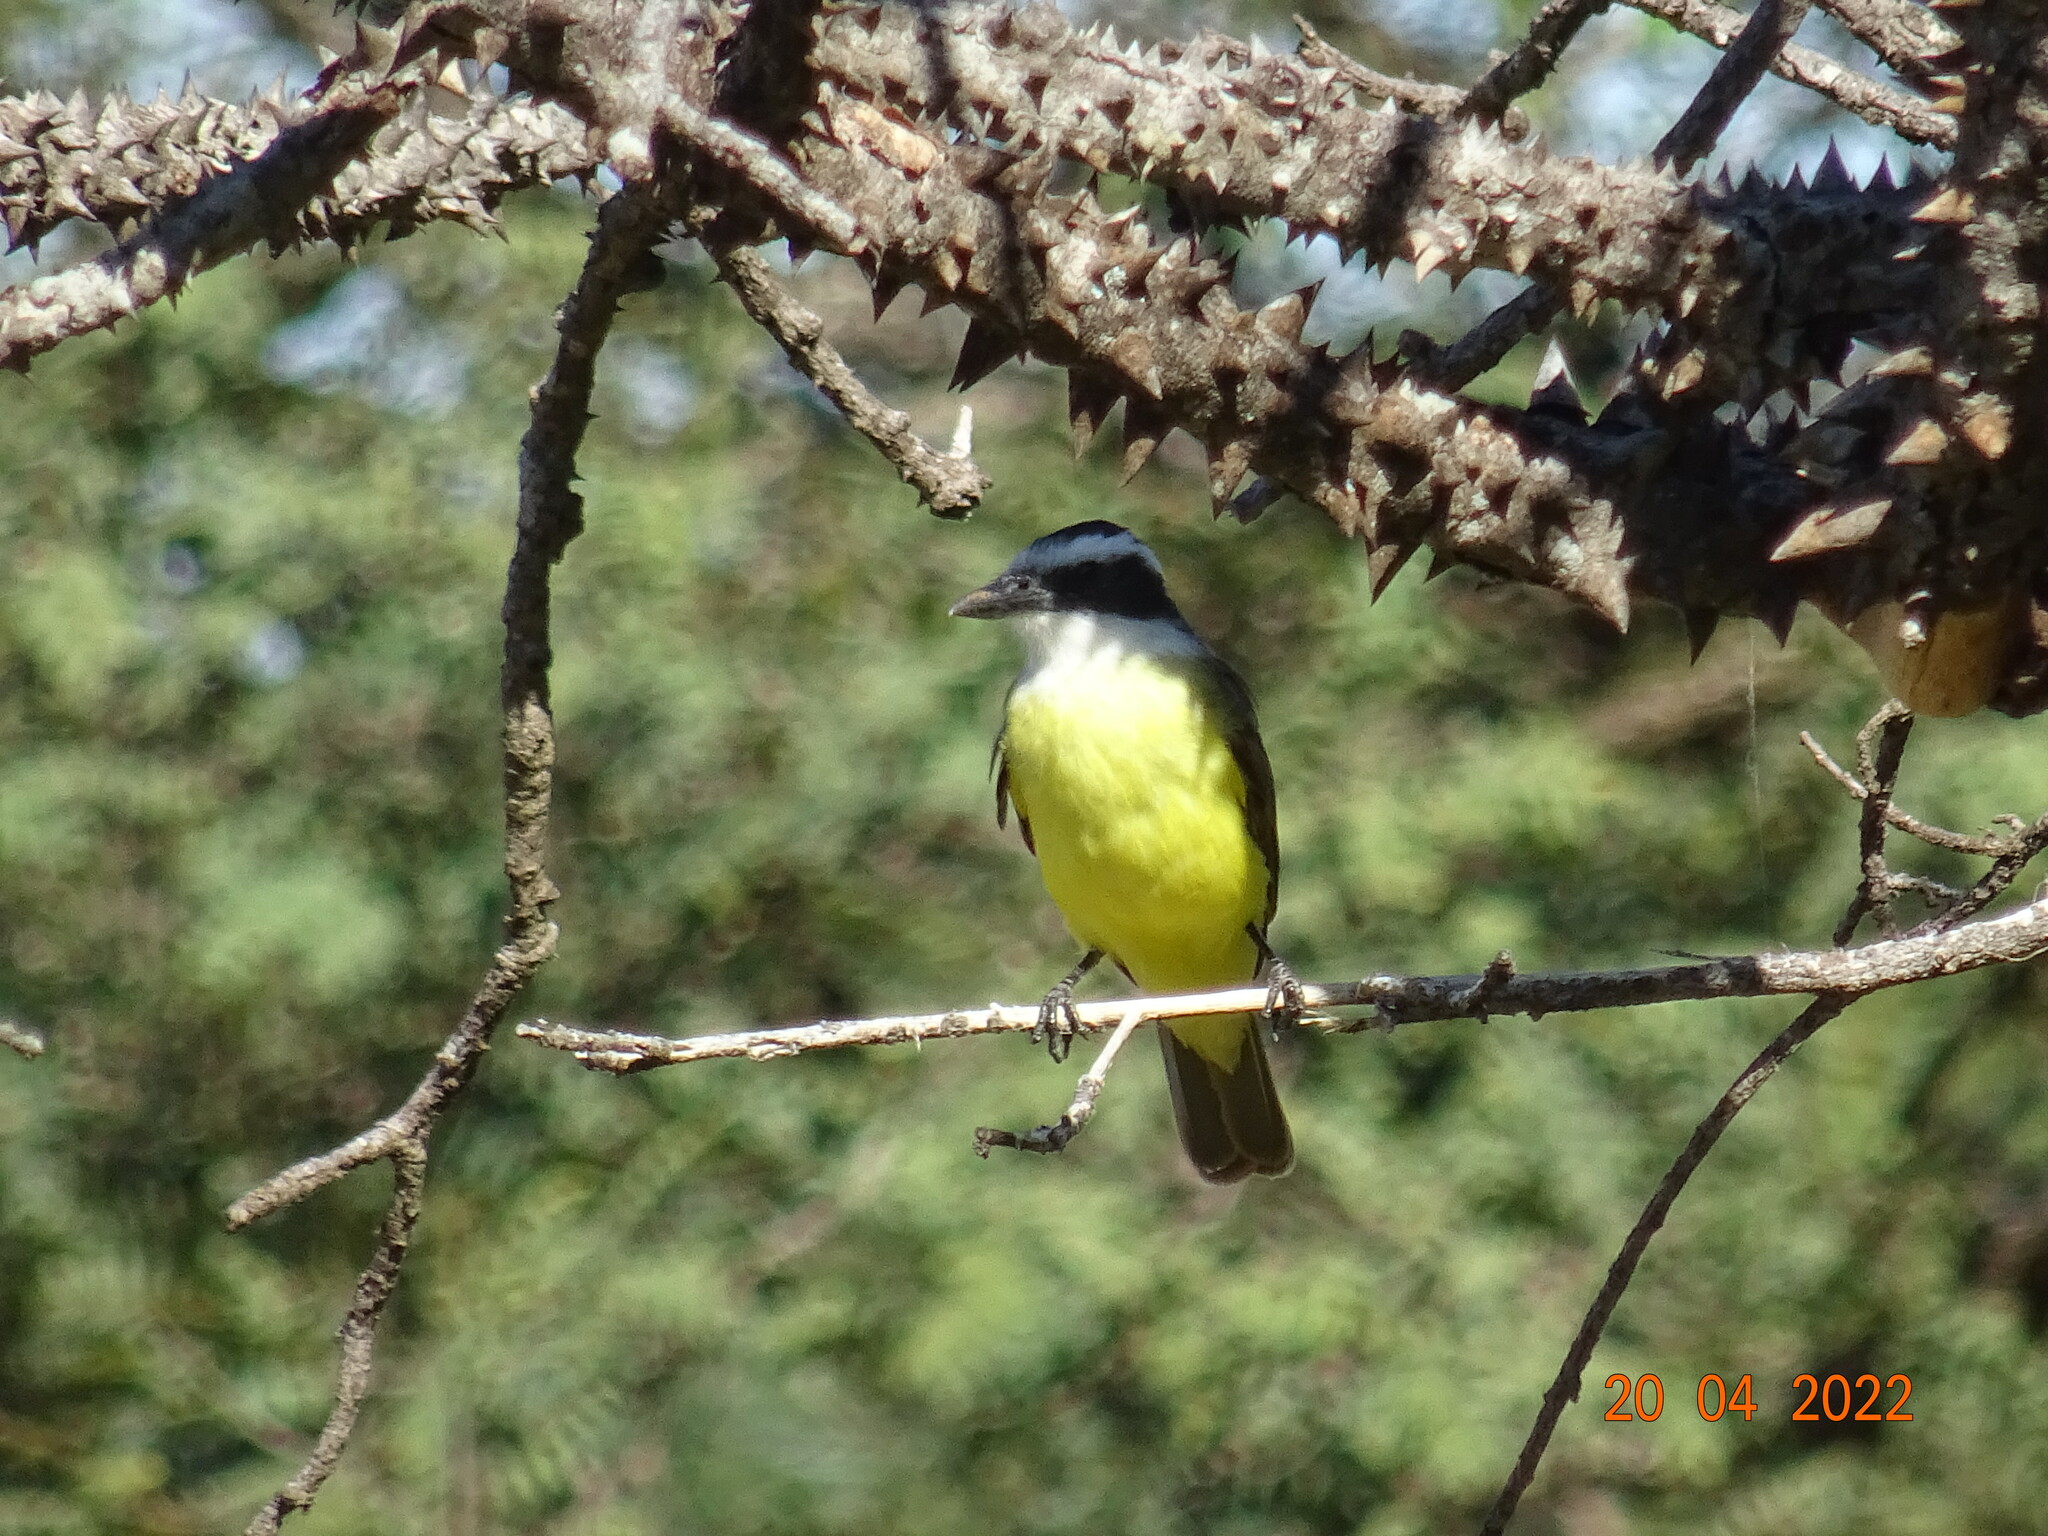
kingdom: Animalia
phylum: Chordata
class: Aves
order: Passeriformes
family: Tyrannidae
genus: Pitangus
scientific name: Pitangus sulphuratus
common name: Great kiskadee
